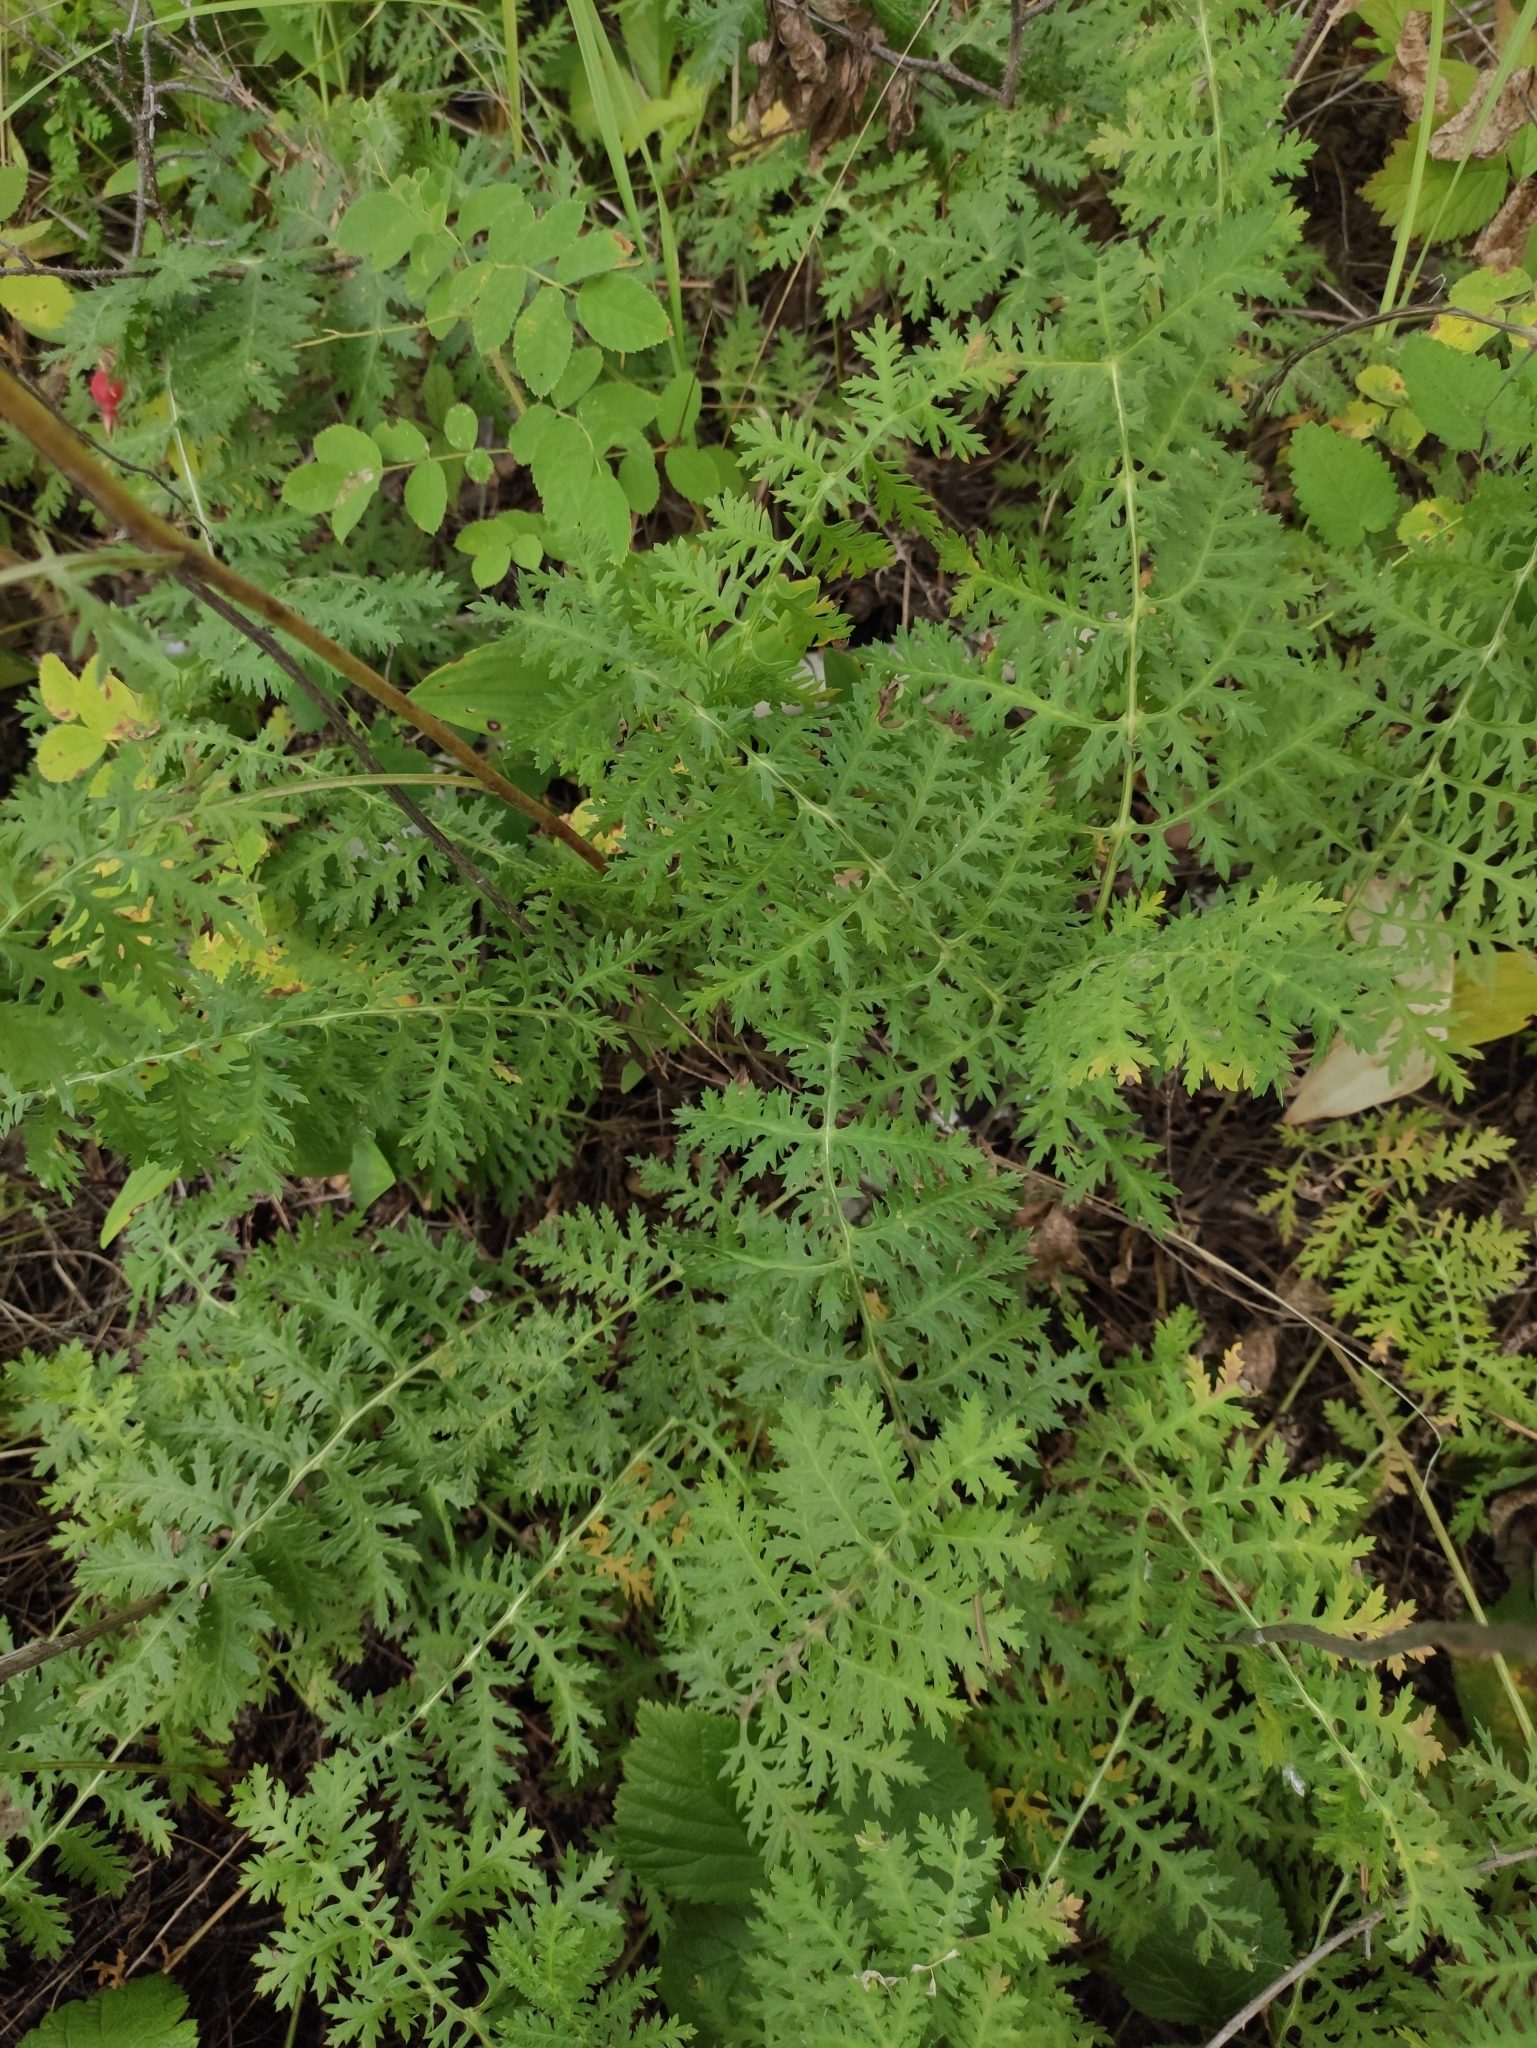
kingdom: Plantae
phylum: Tracheophyta
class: Magnoliopsida
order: Asterales
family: Asteraceae
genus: Artemisia
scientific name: Artemisia tanacetifolia
